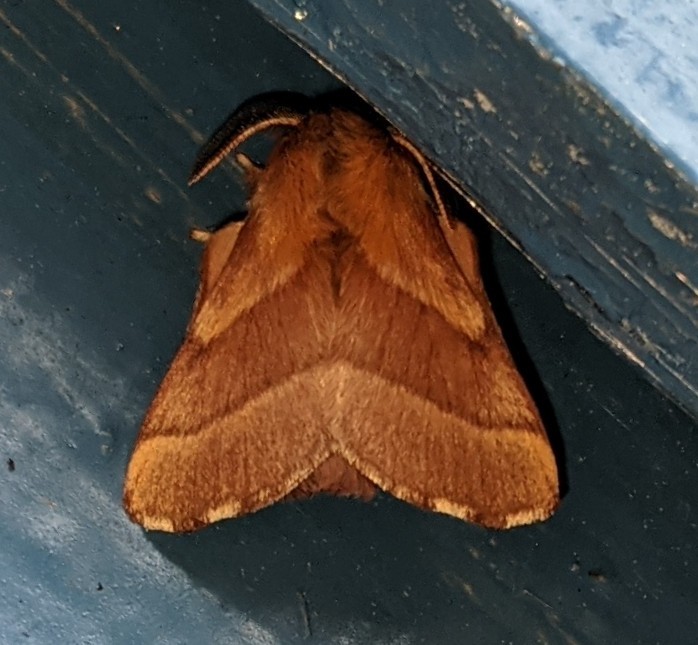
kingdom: Animalia
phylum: Arthropoda
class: Insecta
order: Lepidoptera
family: Lasiocampidae
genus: Malacosoma
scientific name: Malacosoma disstria
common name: Forest tent caterpillar
